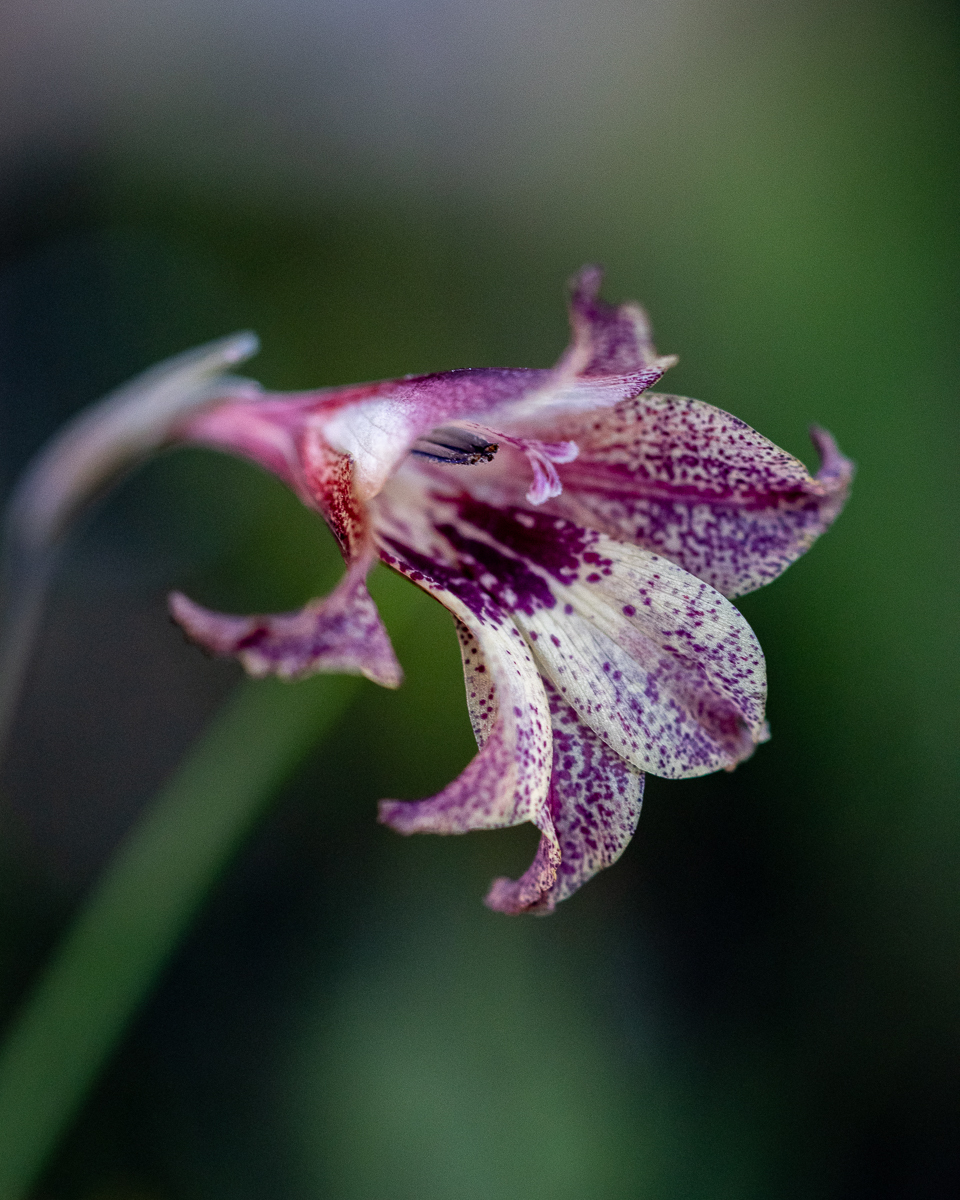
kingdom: Plantae
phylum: Tracheophyta
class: Liliopsida
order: Asparagales
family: Iridaceae
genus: Gladiolus
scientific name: Gladiolus maculatus
